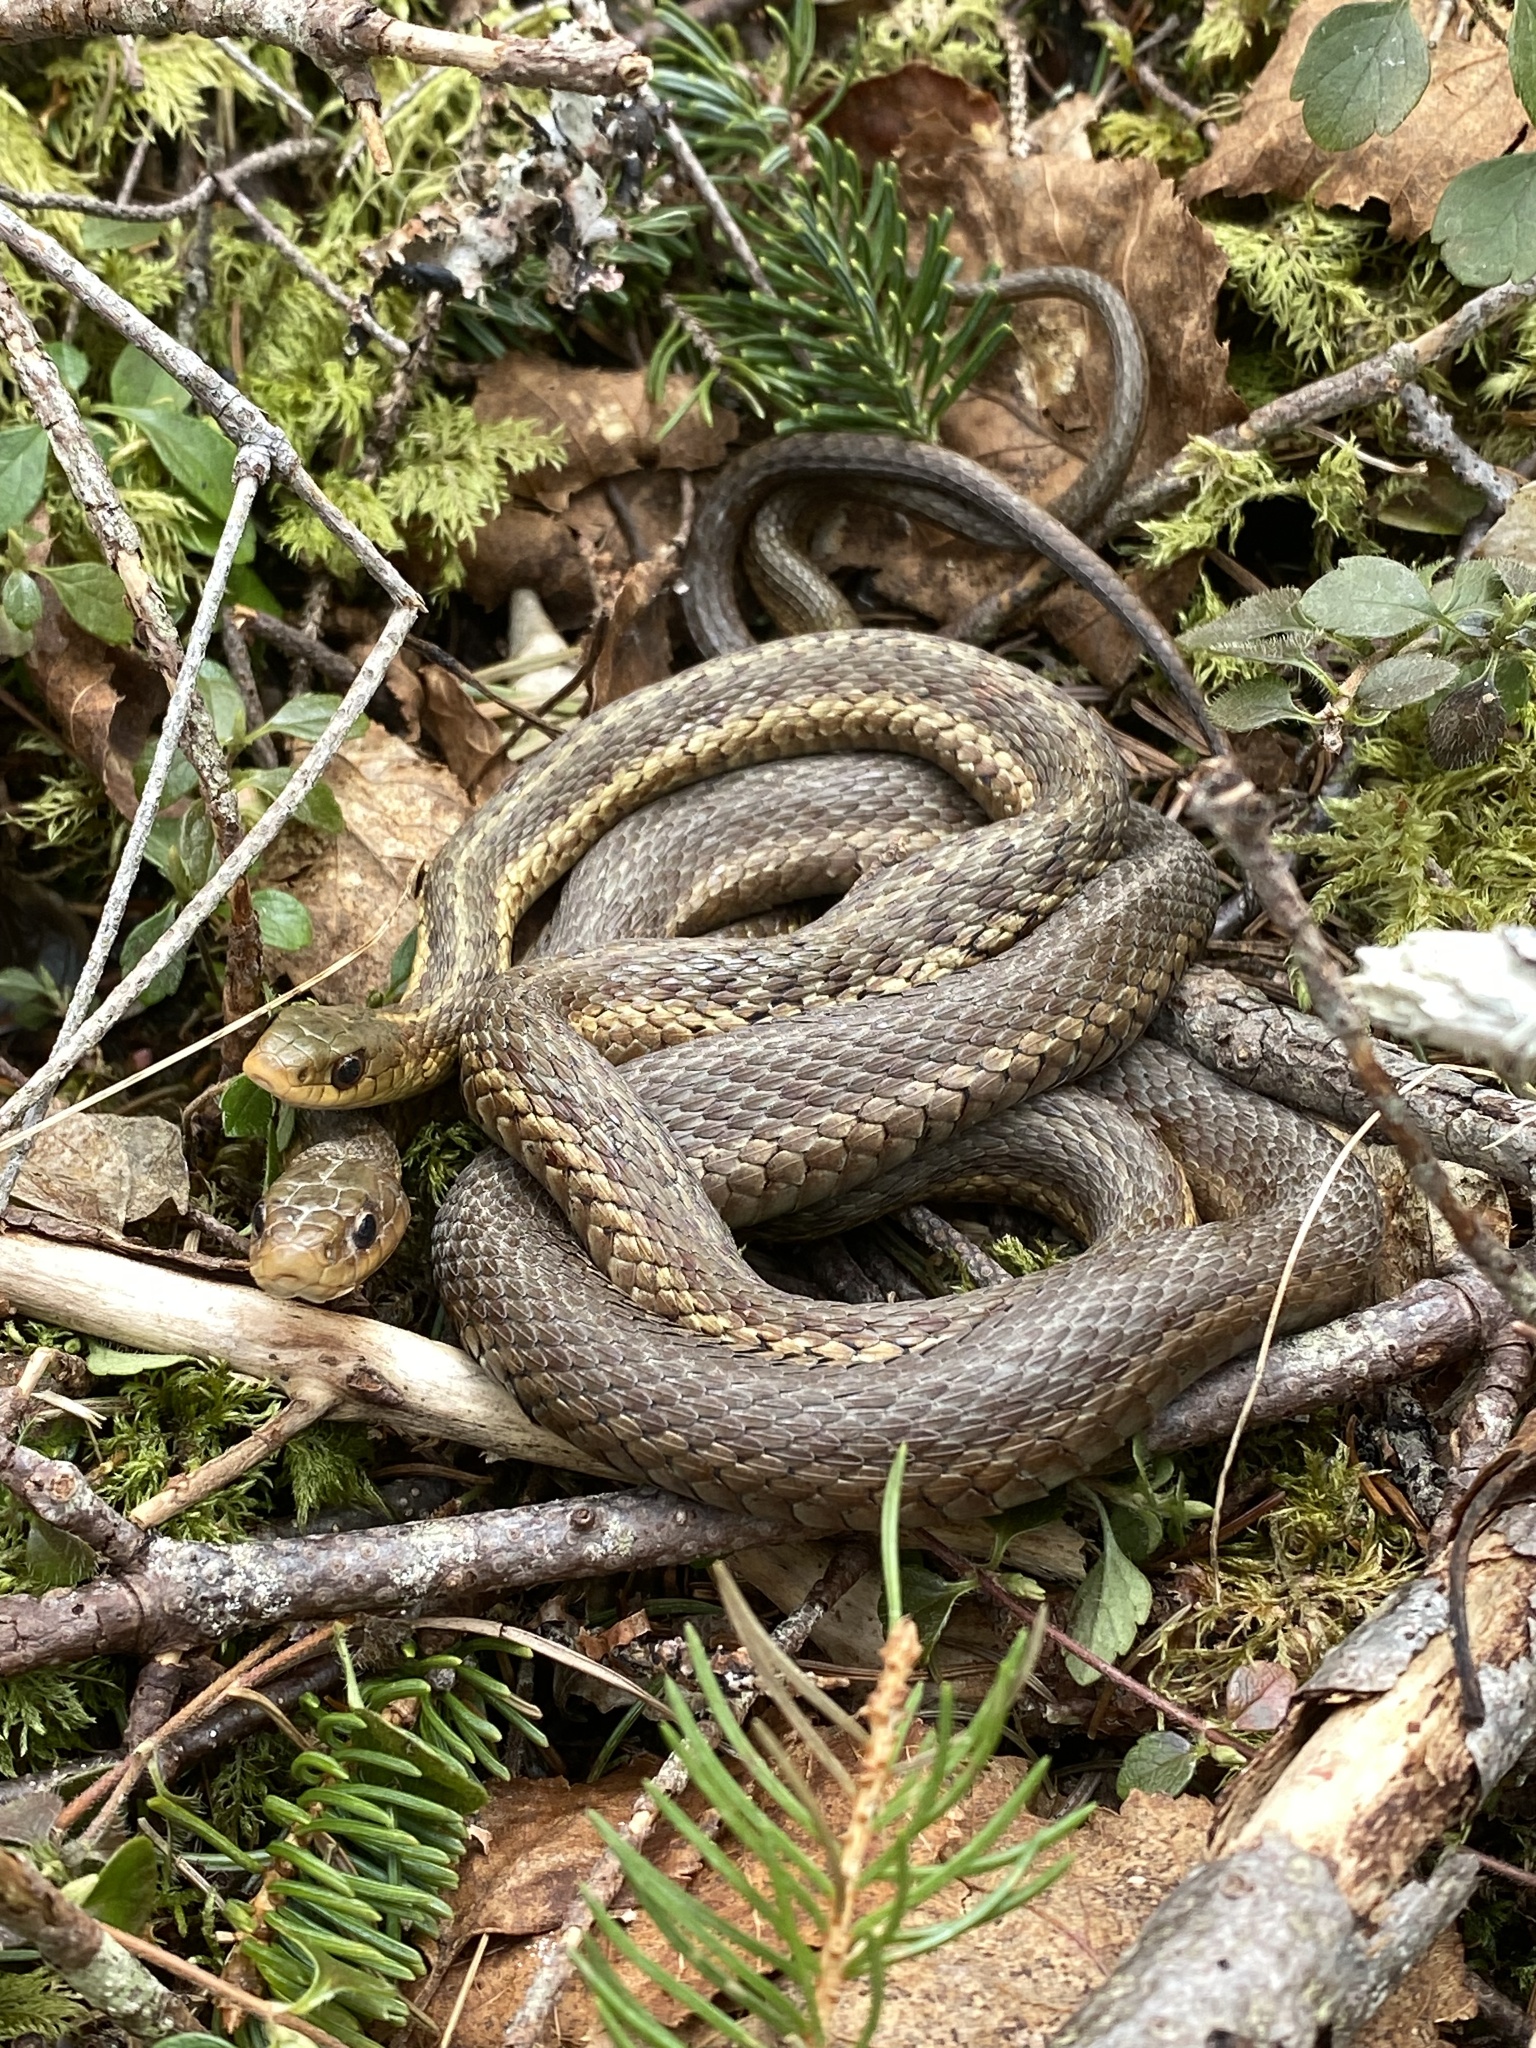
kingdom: Animalia
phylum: Chordata
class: Squamata
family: Colubridae
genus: Thamnophis
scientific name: Thamnophis sirtalis
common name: Common garter snake
